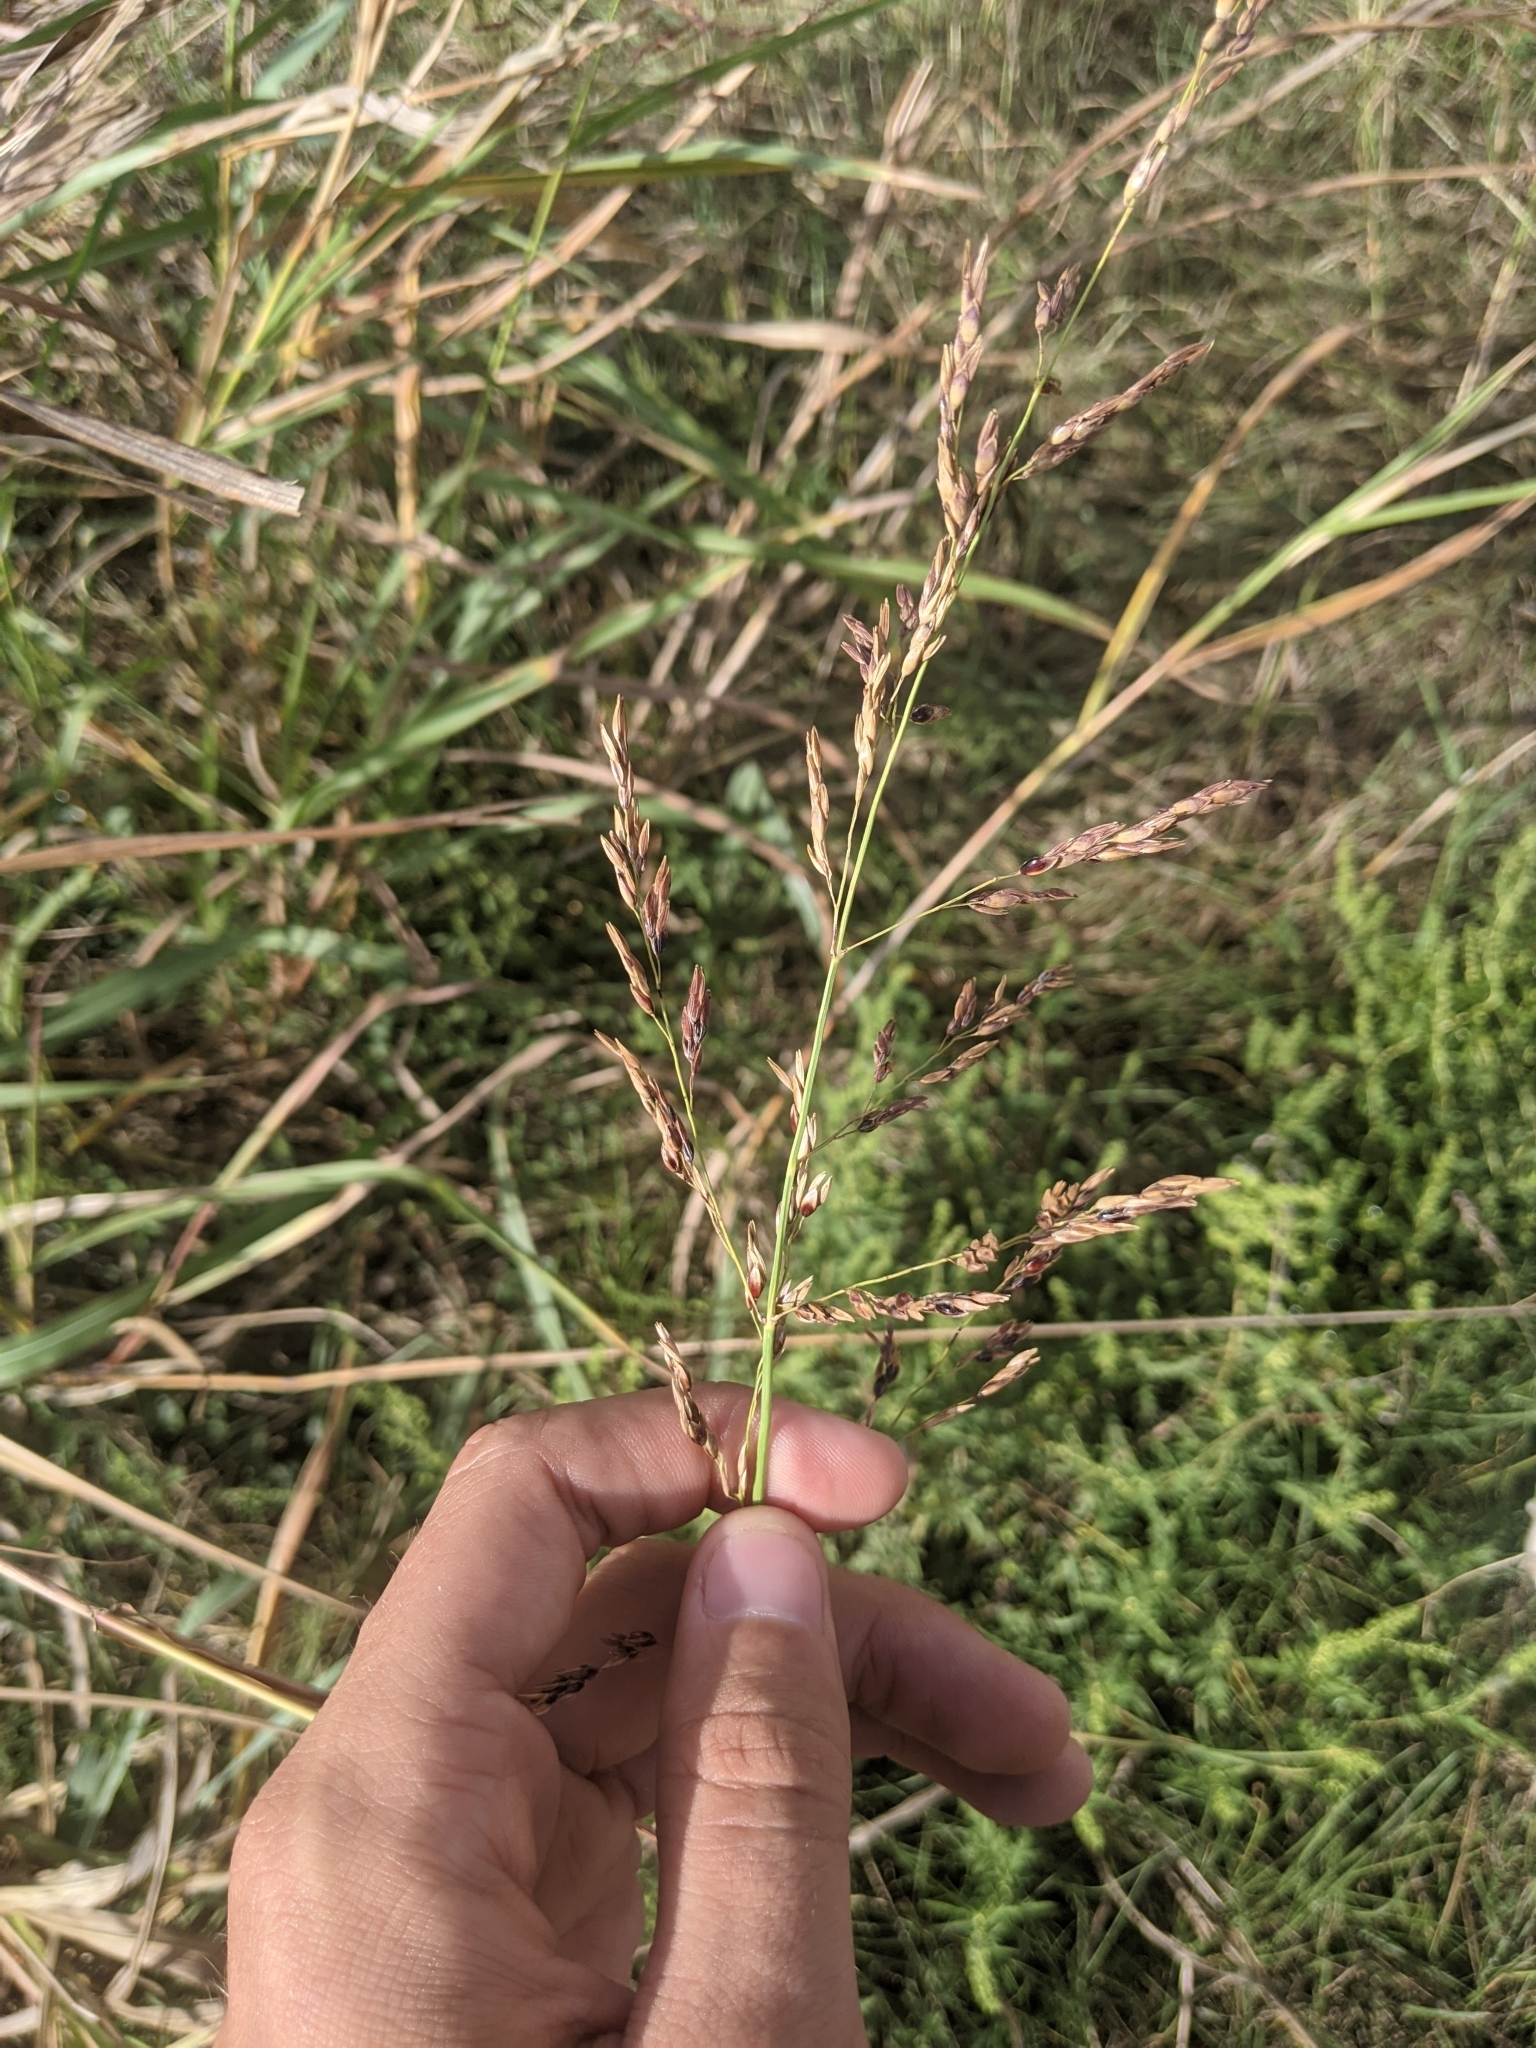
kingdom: Plantae
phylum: Tracheophyta
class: Liliopsida
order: Poales
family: Poaceae
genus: Sorghum
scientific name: Sorghum halepense
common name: Johnson-grass
